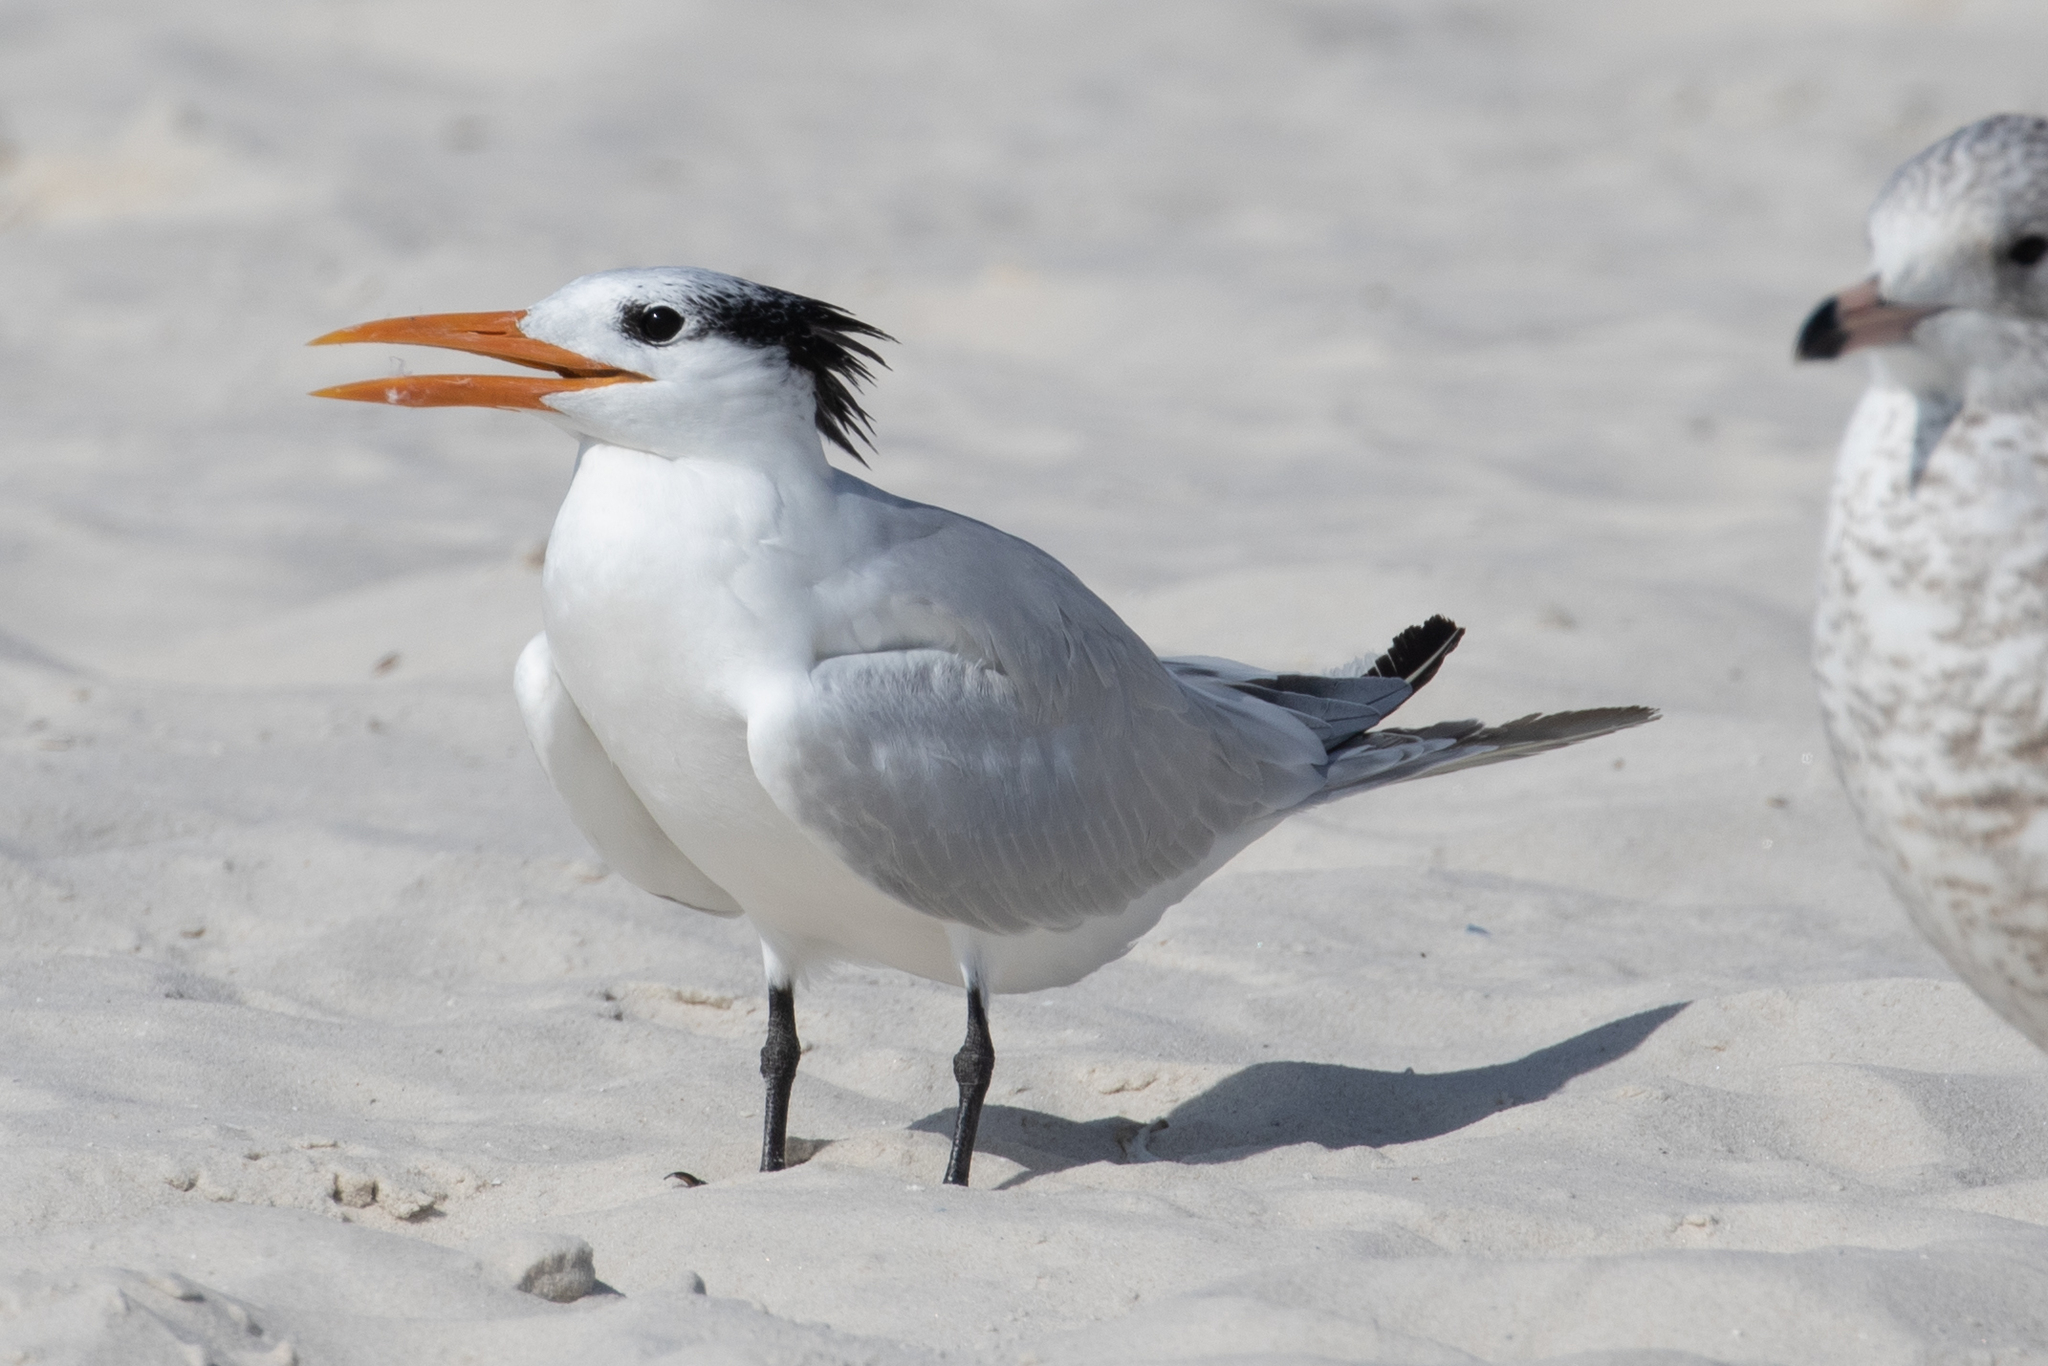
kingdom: Animalia
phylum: Chordata
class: Aves
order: Charadriiformes
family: Laridae
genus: Thalasseus
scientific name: Thalasseus maximus
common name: Royal tern
